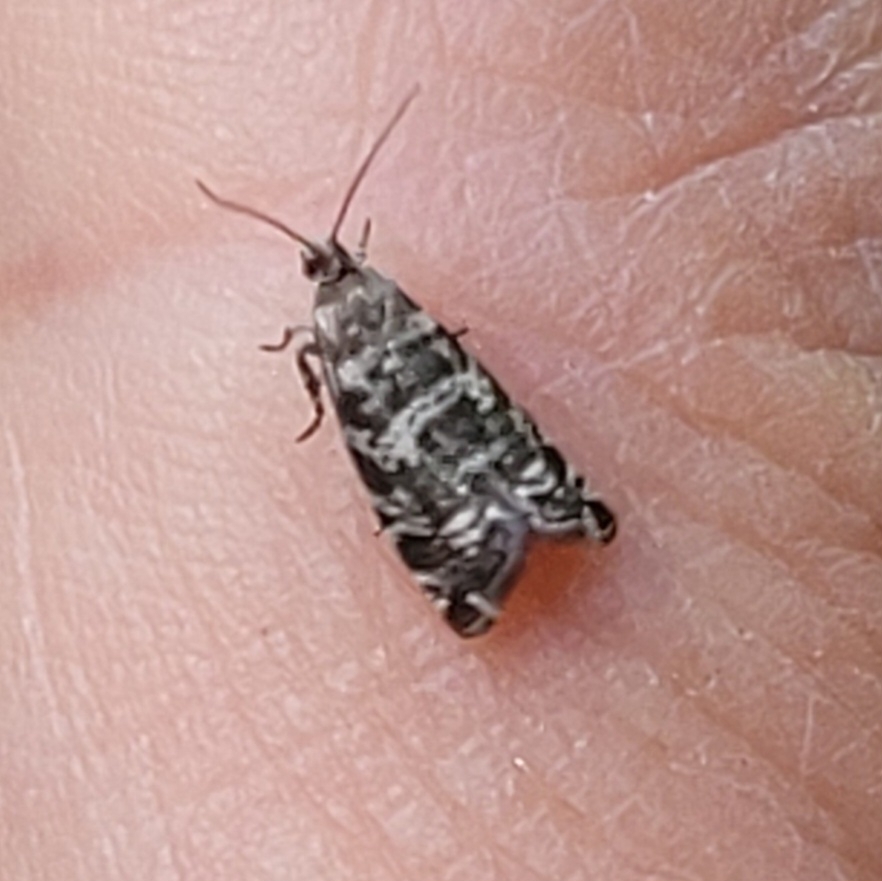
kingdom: Animalia
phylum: Arthropoda
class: Insecta
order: Lepidoptera
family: Tortricidae
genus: Epinotia
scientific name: Epinotia tedella
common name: Common spruce bell
